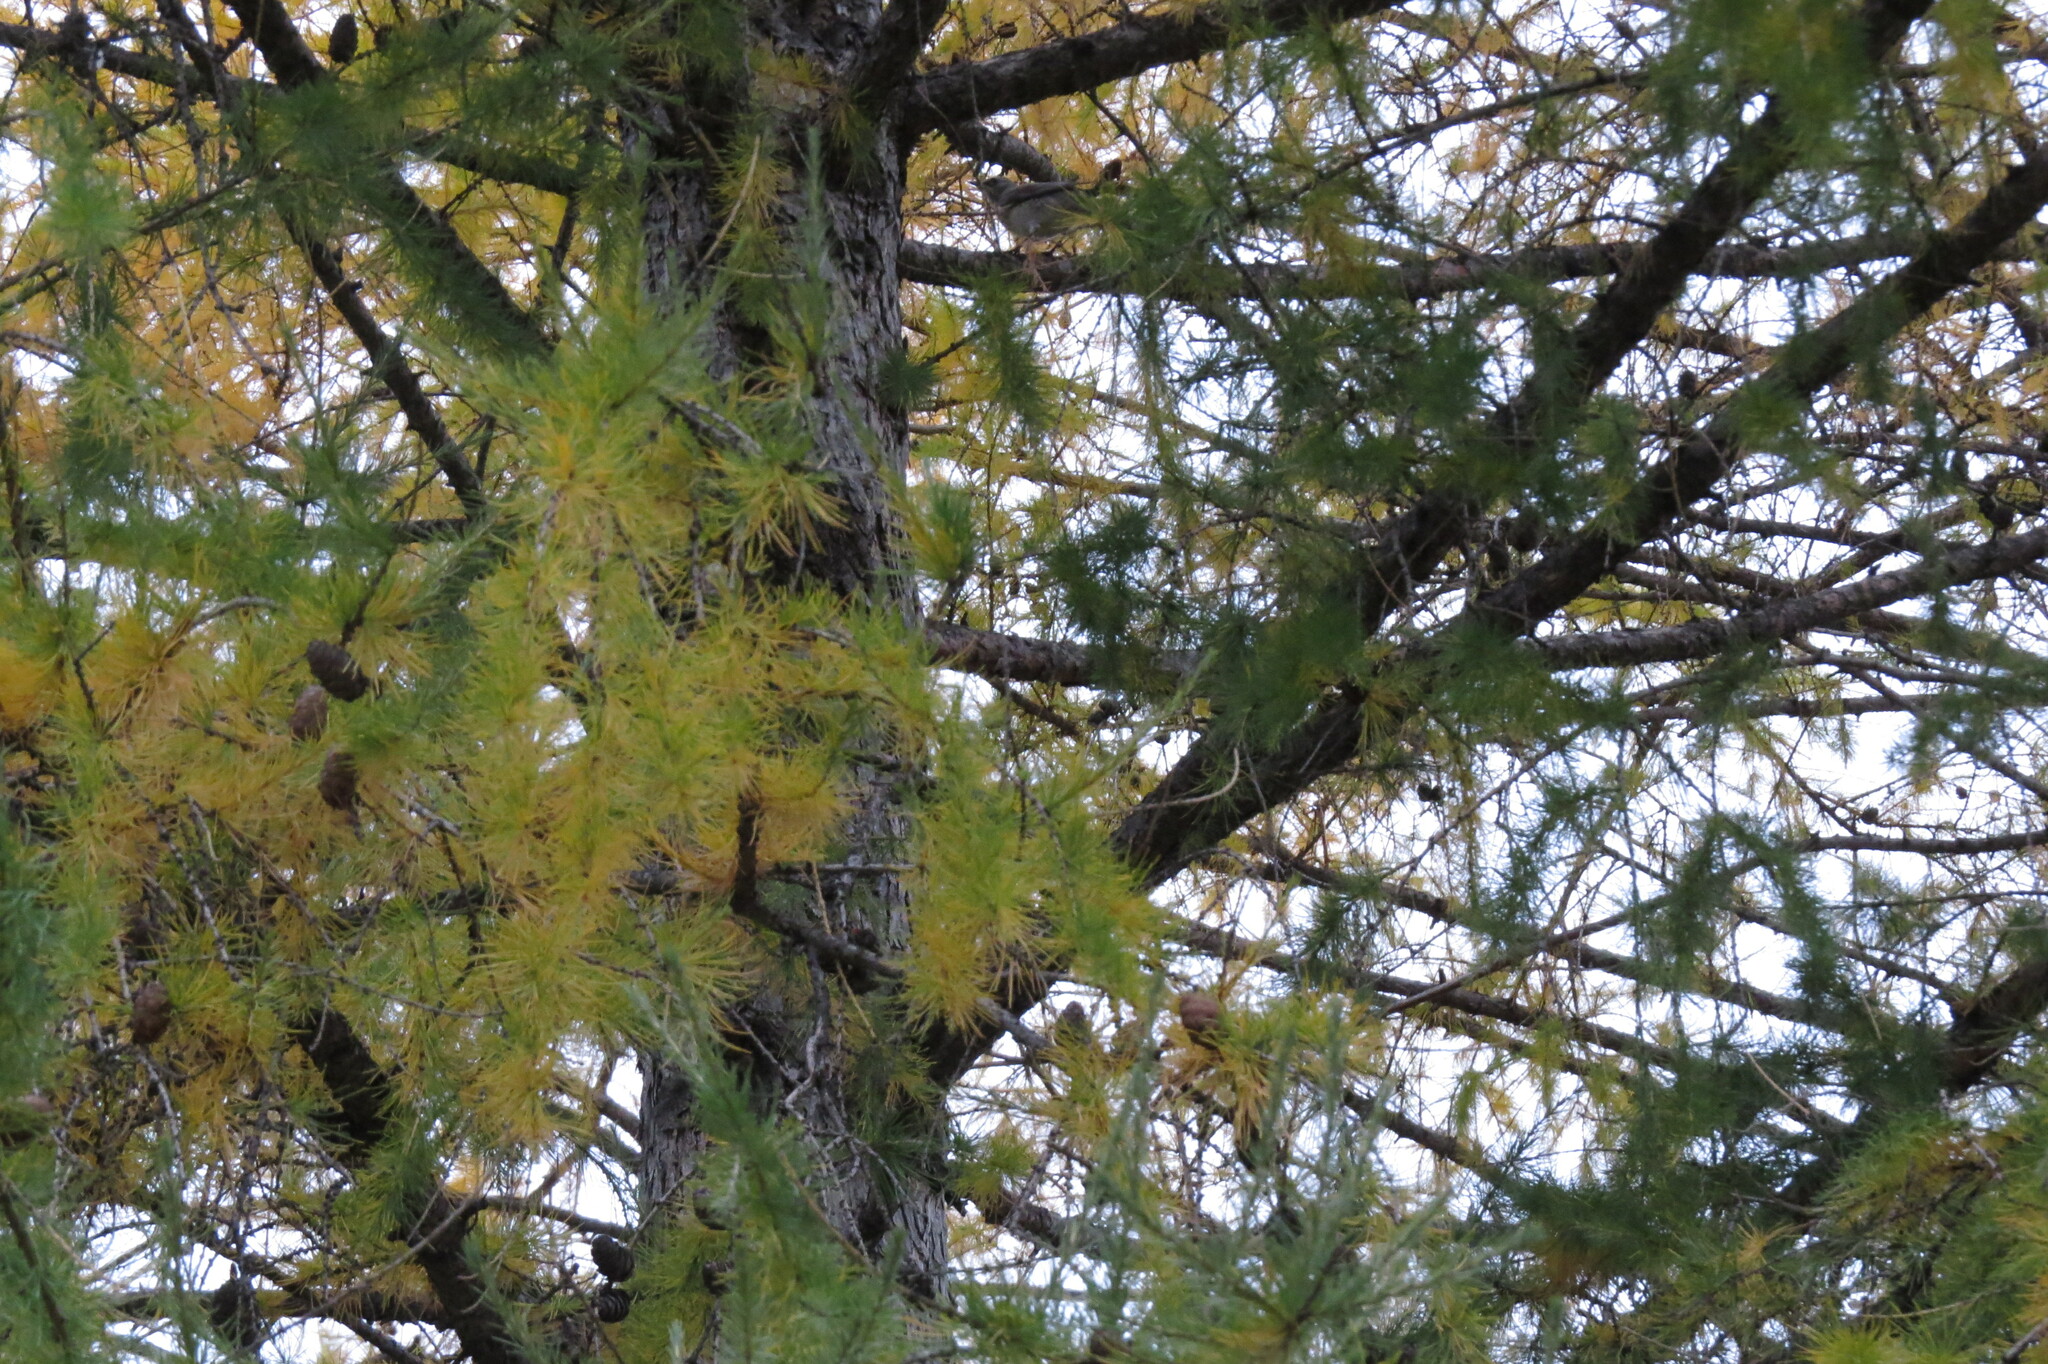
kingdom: Animalia
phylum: Chordata
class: Aves
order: Passeriformes
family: Turdidae
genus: Turdus
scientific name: Turdus pilaris
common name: Fieldfare
